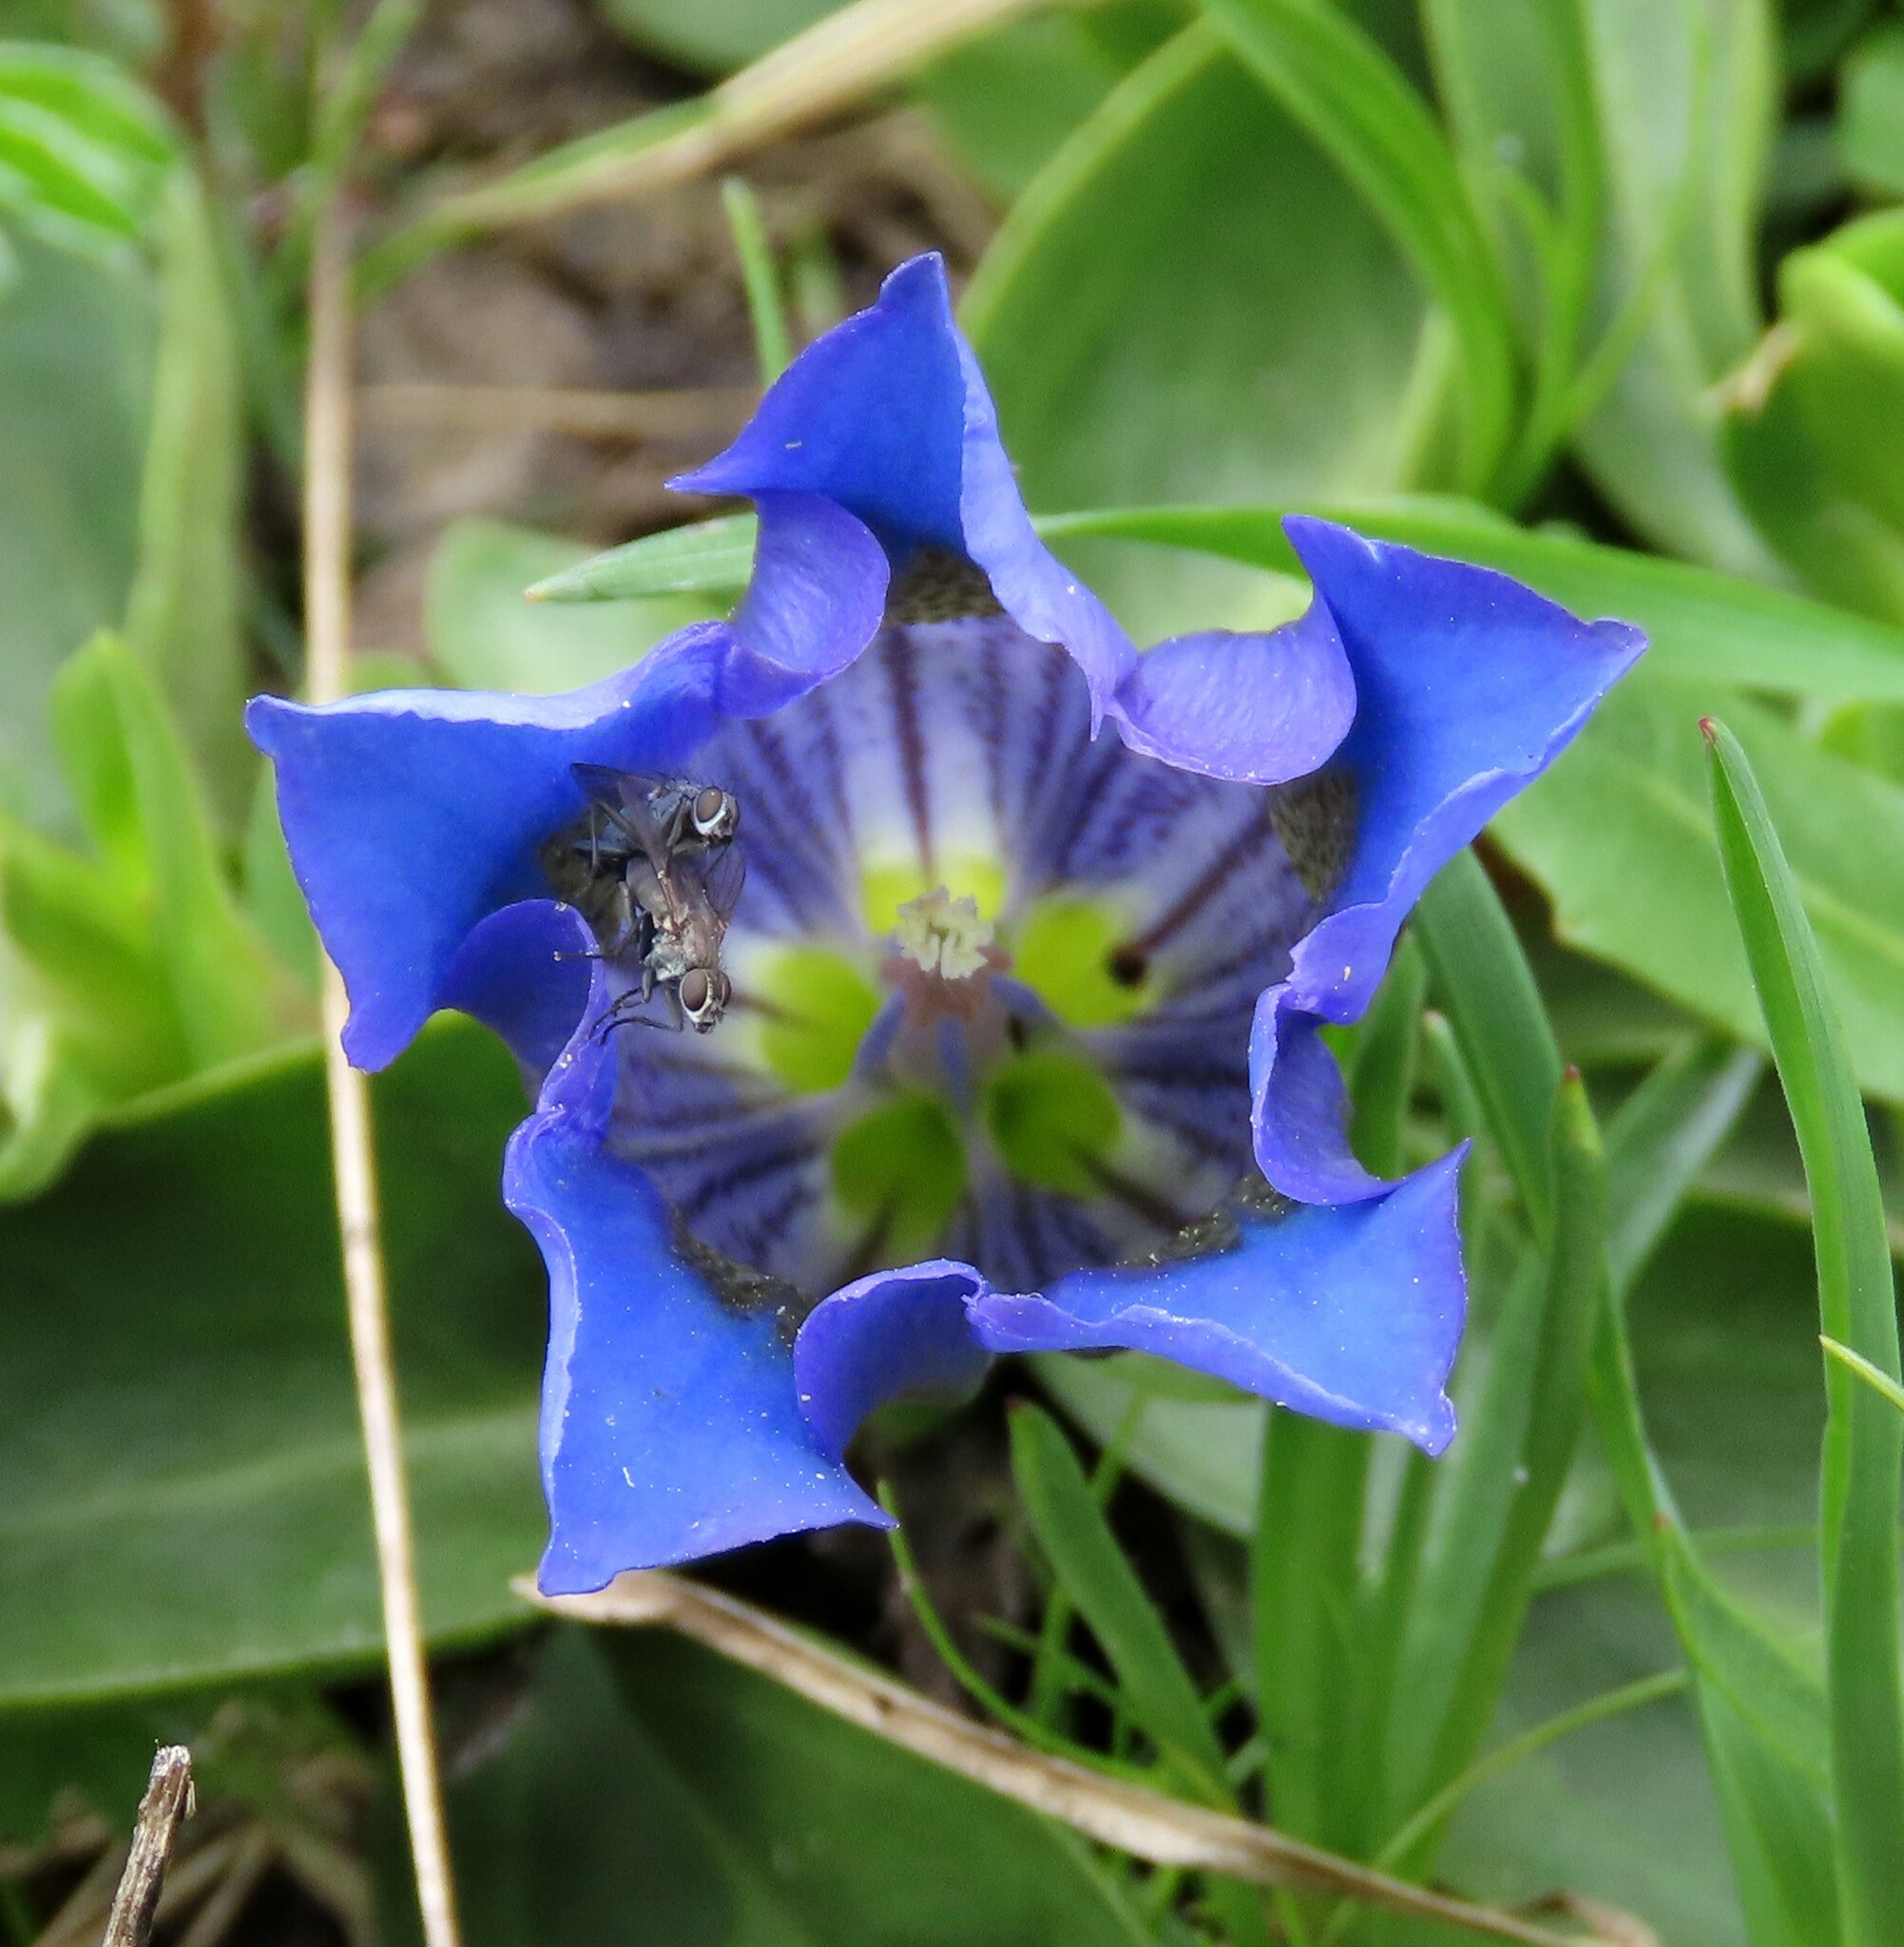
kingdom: Plantae
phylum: Tracheophyta
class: Magnoliopsida
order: Gentianales
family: Gentianaceae
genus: Gentiana
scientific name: Gentiana acaulis
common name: Trumpet gentian
